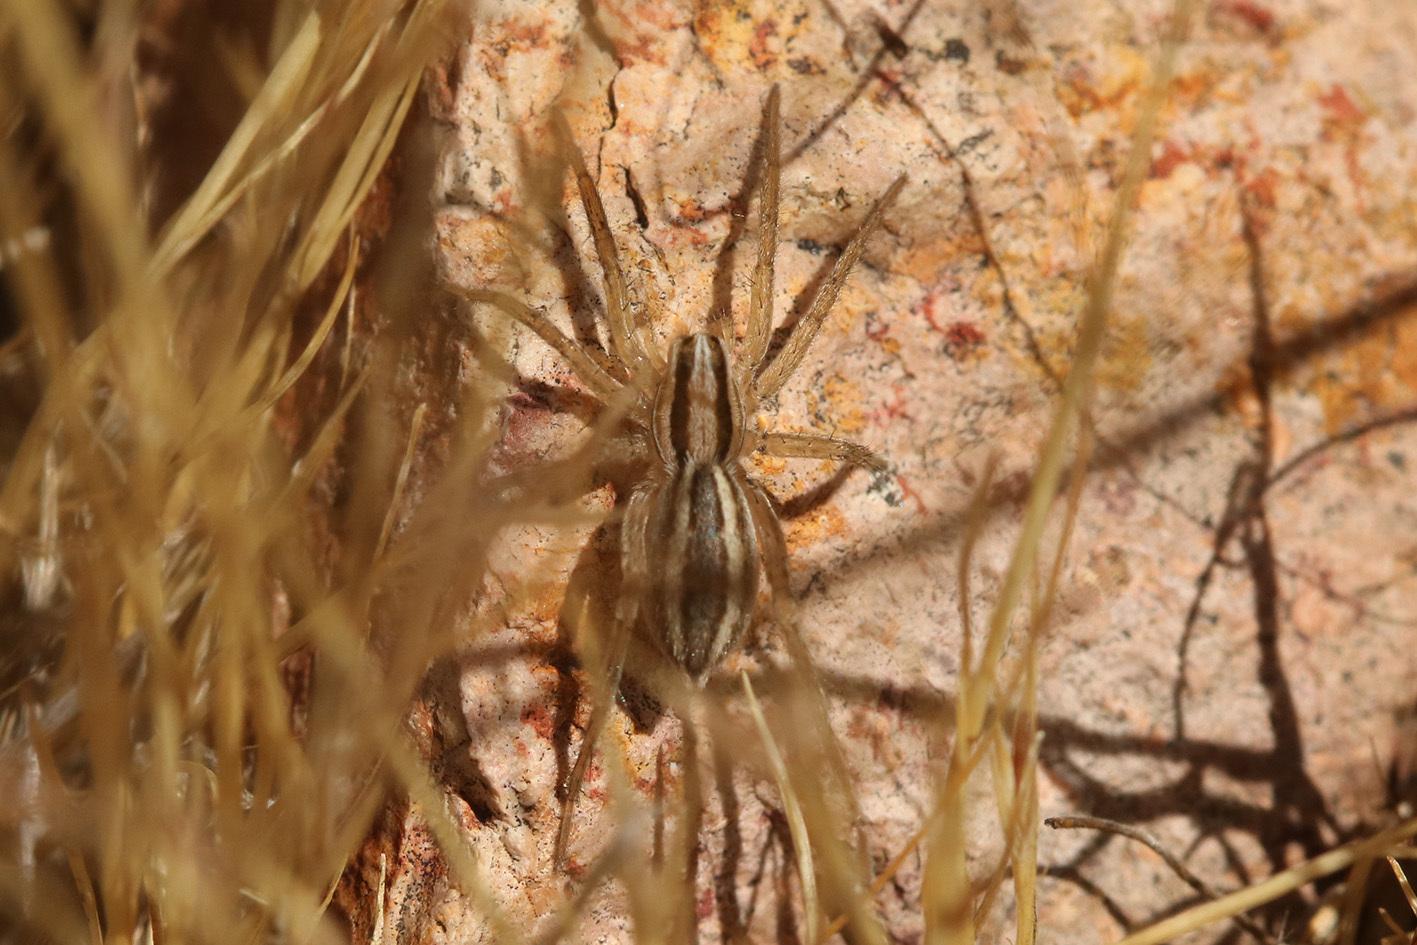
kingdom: Animalia
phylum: Arthropoda
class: Arachnida
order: Araneae
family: Lycosidae
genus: Hogna
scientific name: Hogna bivittata
